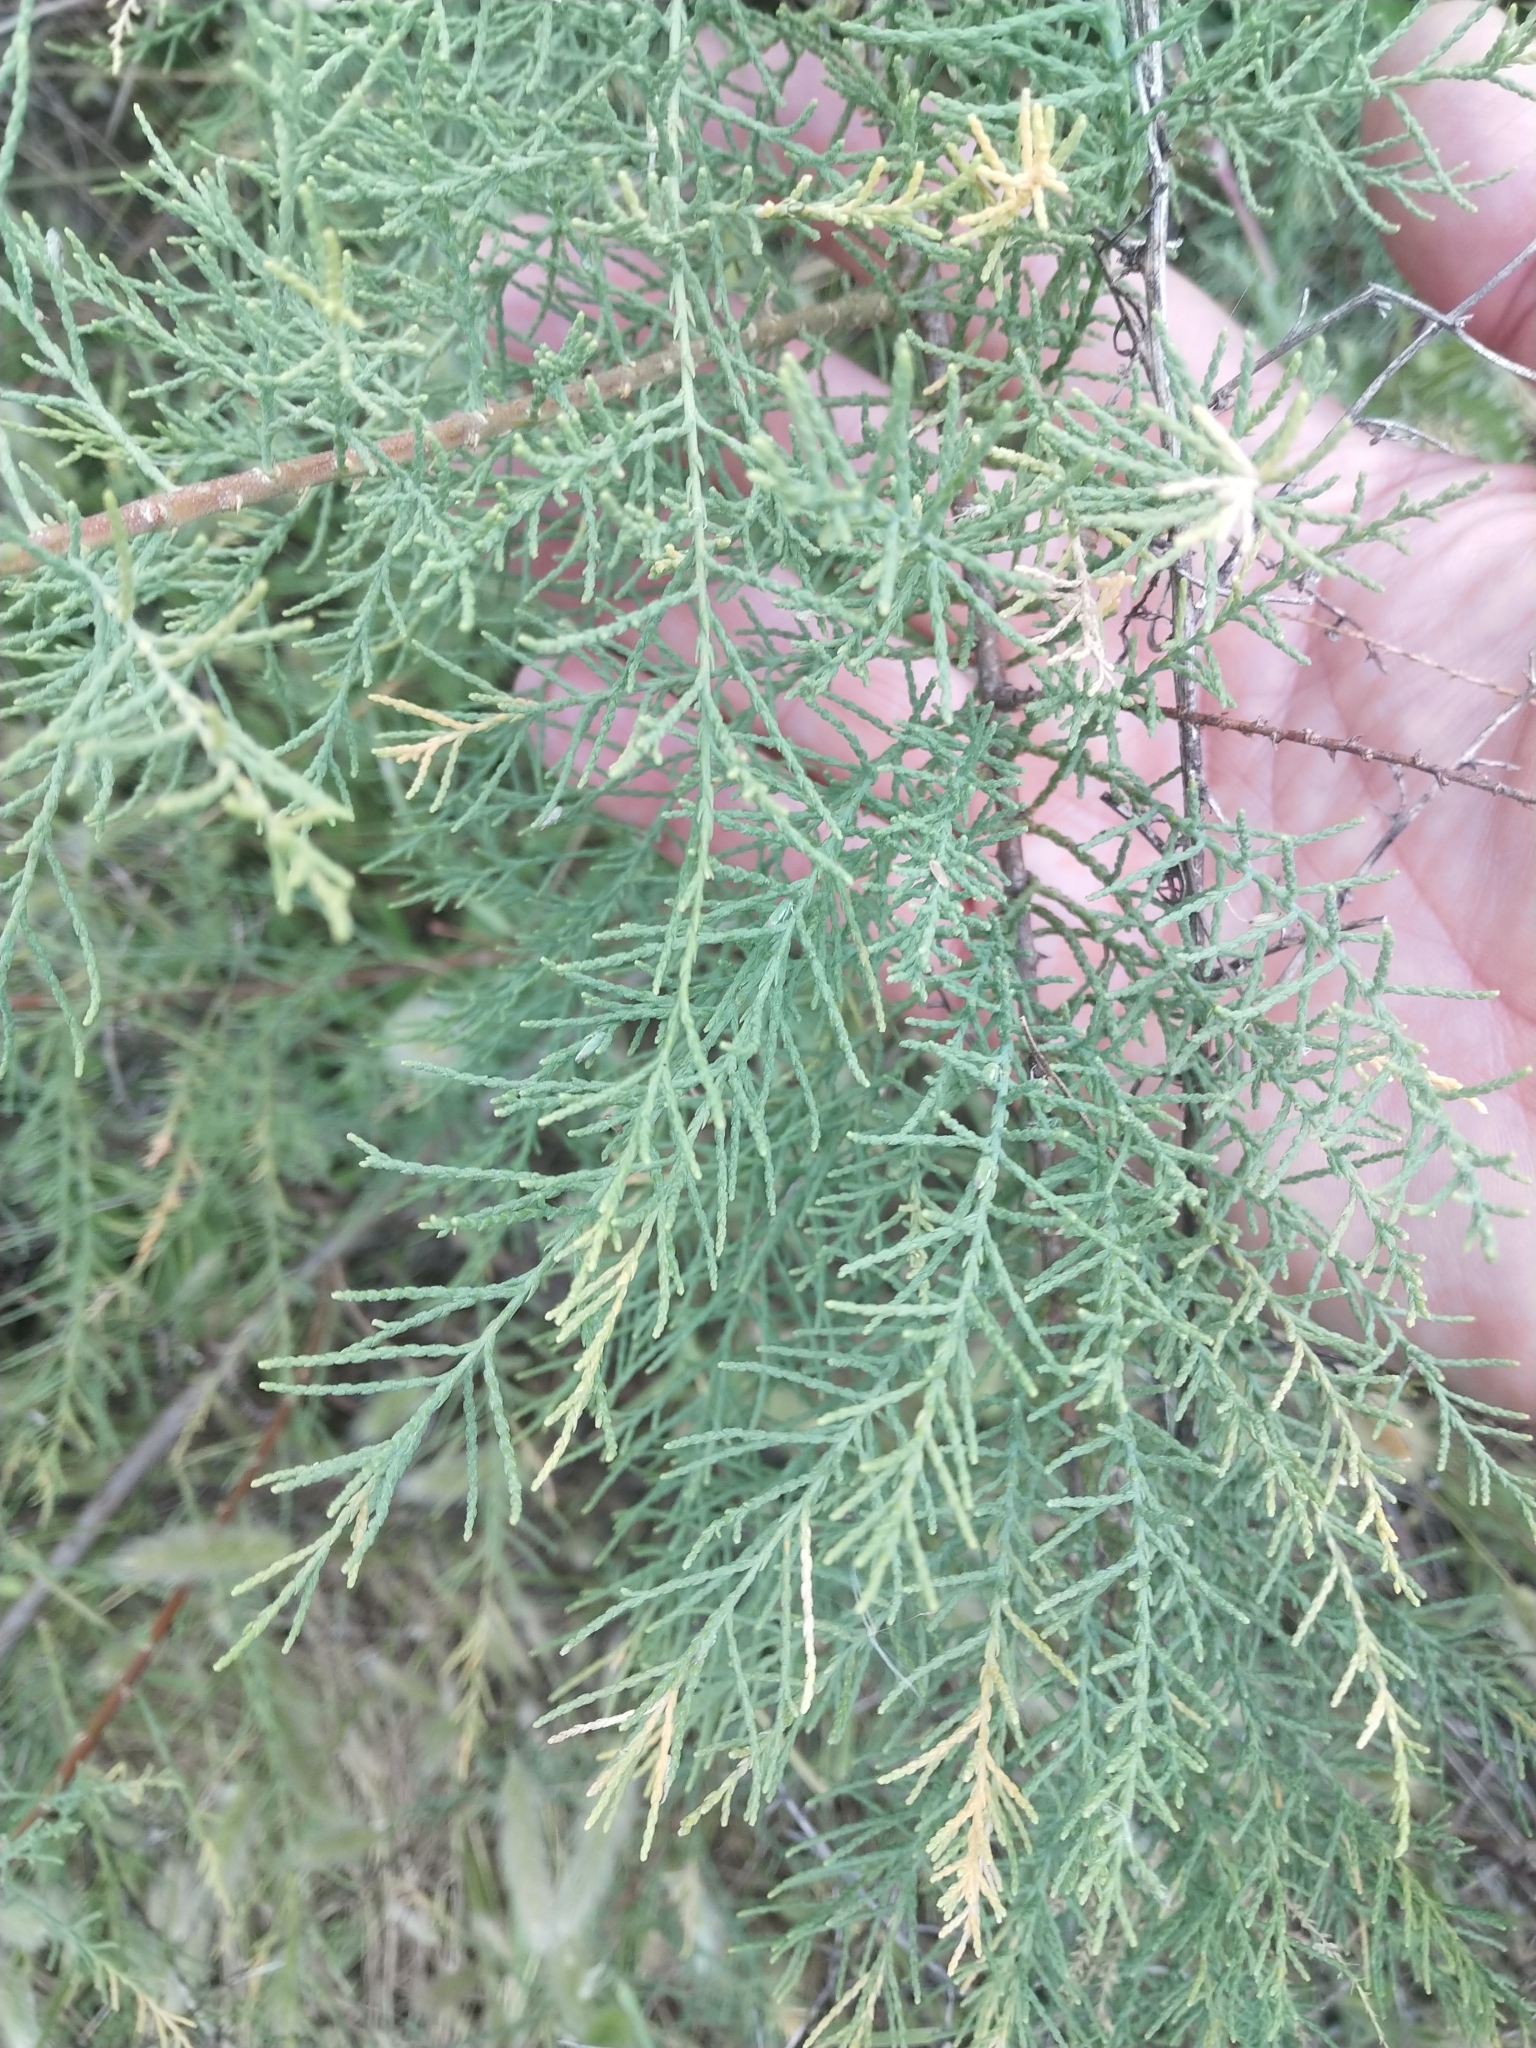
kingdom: Plantae
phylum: Tracheophyta
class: Magnoliopsida
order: Caryophyllales
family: Tamaricaceae
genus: Tamarix
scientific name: Tamarix ramosissima
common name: Pink tamarisk
